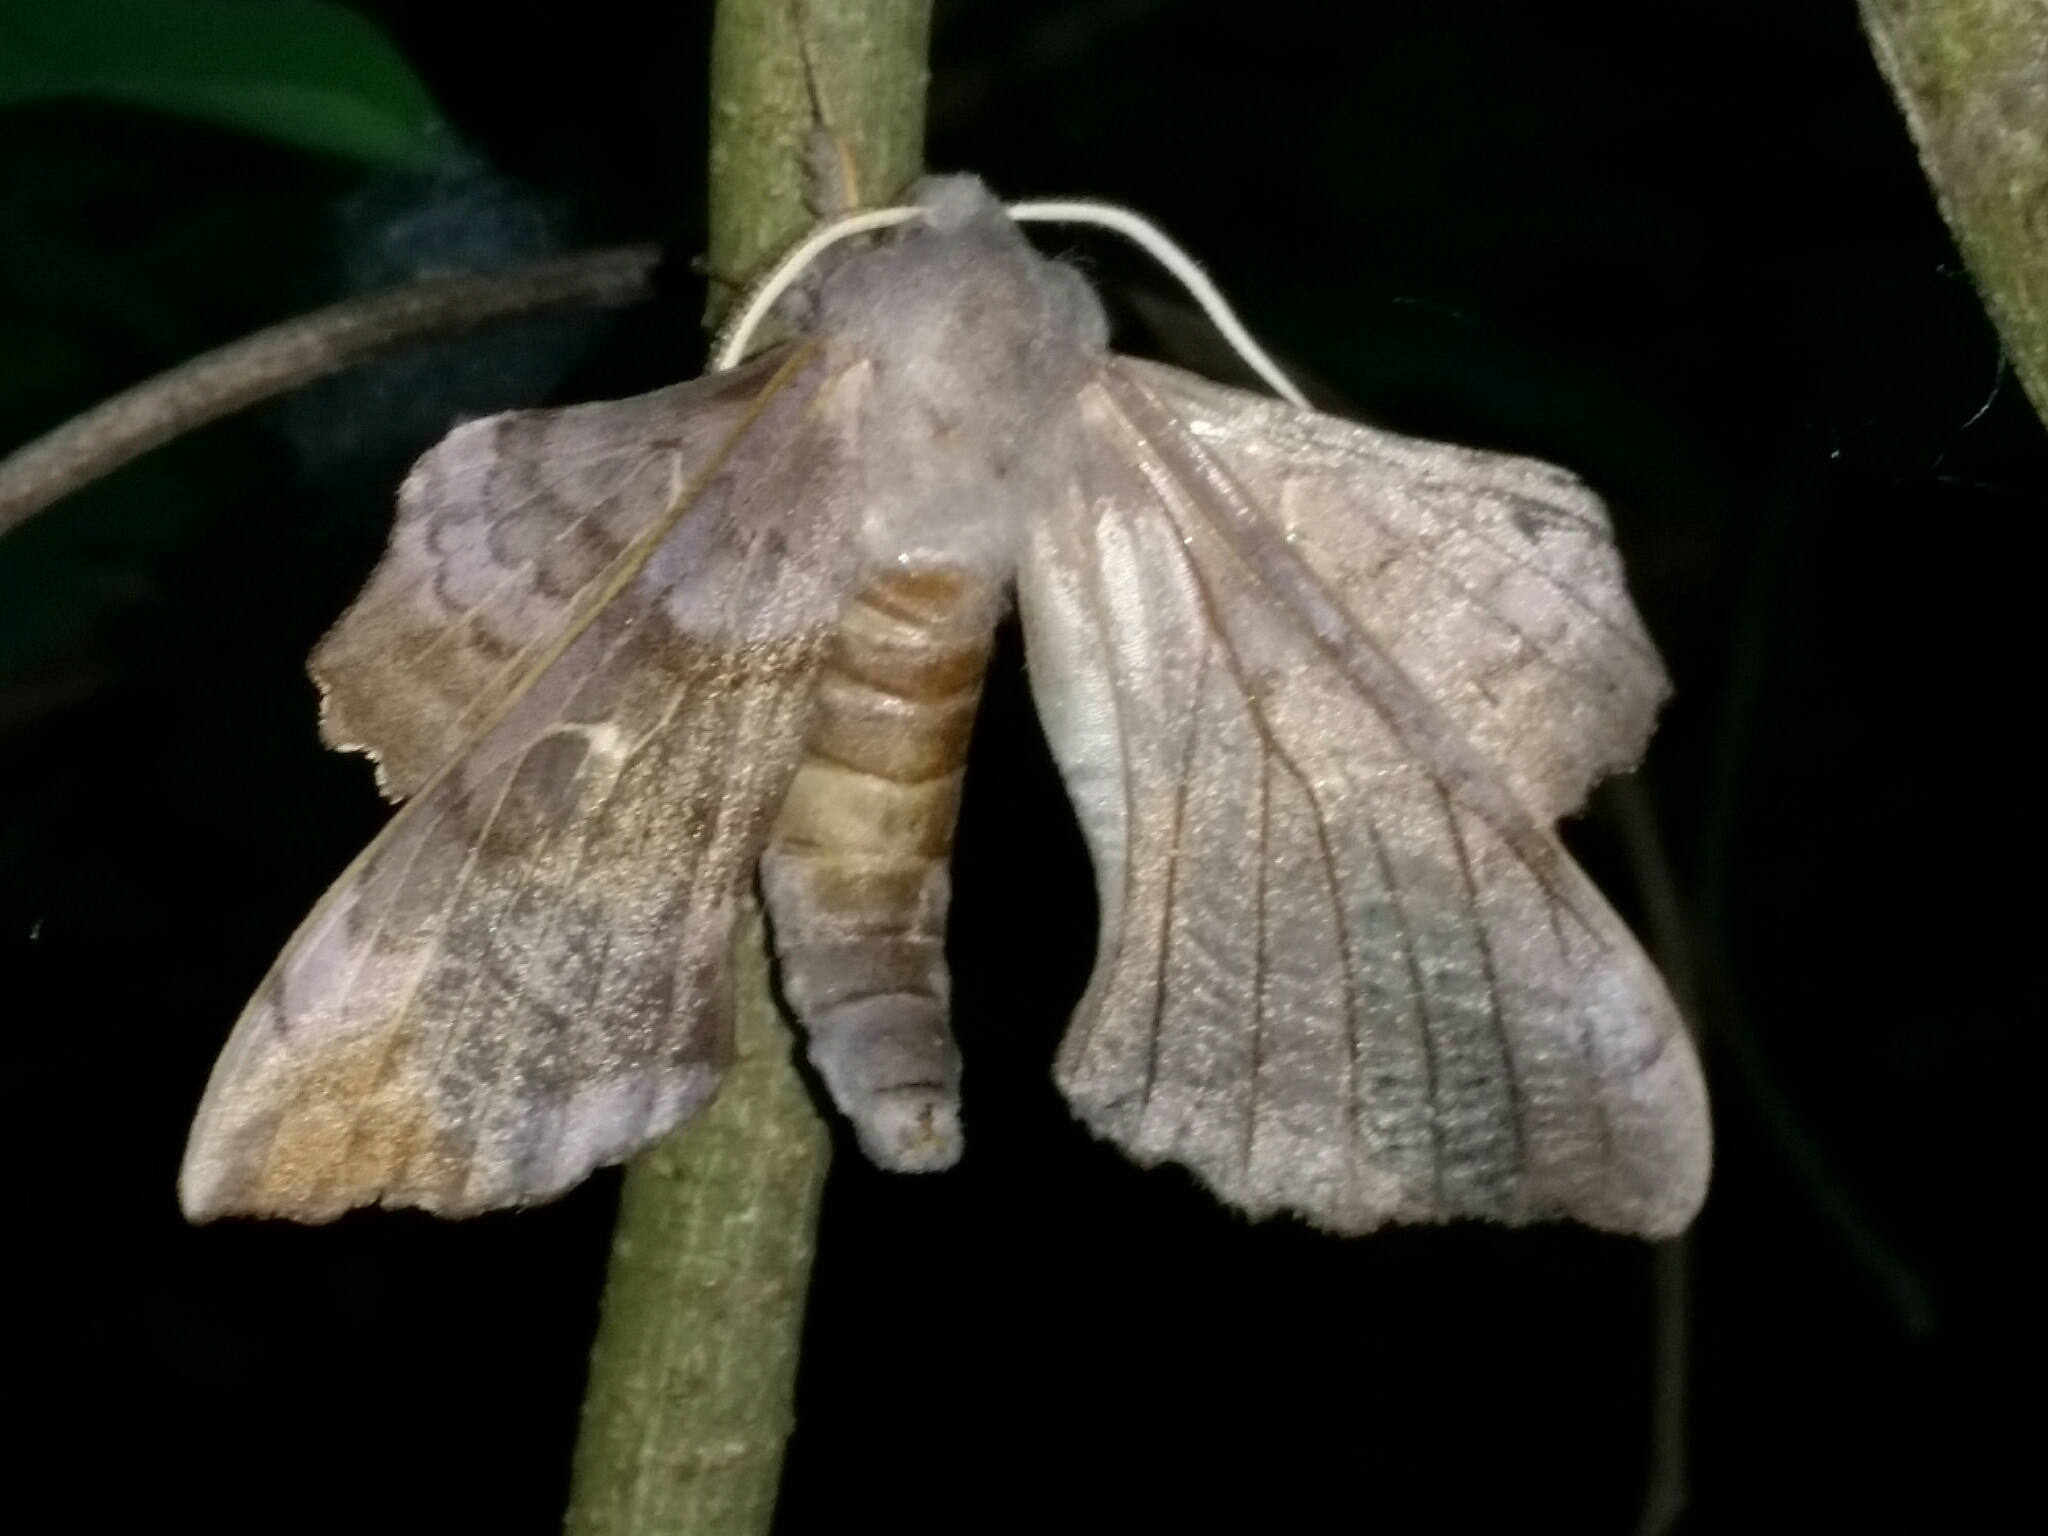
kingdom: Animalia
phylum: Arthropoda
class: Insecta
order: Lepidoptera
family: Sphingidae
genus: Laothoe
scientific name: Laothoe populi
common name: Poplar hawk-moth
